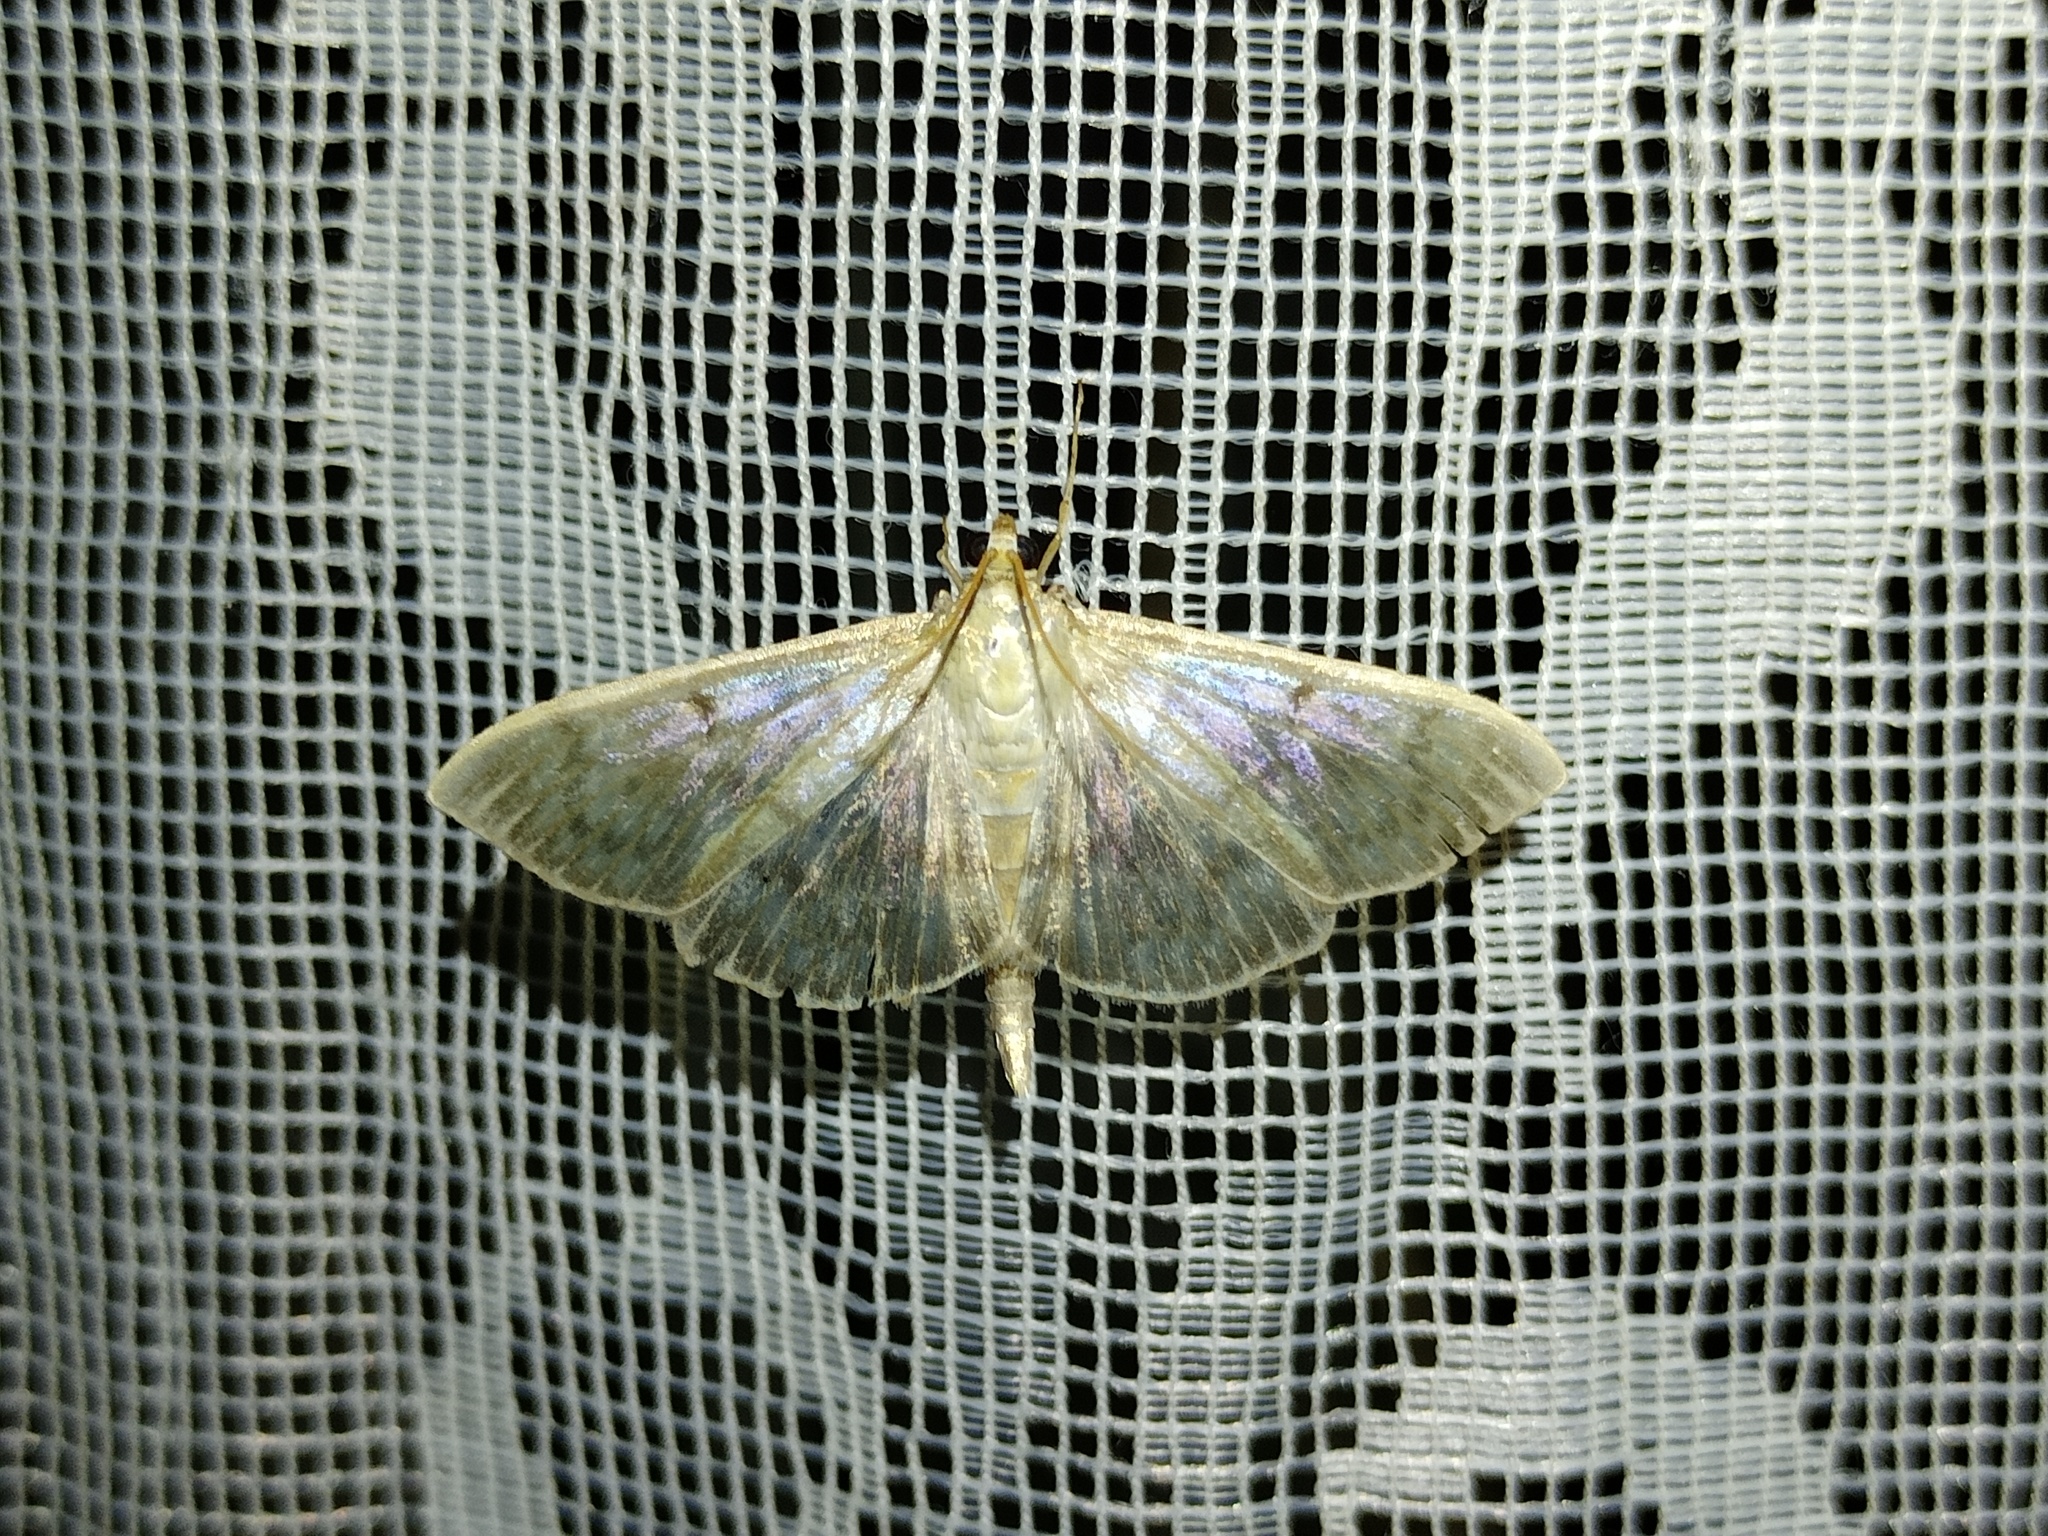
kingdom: Animalia
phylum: Arthropoda
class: Insecta
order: Lepidoptera
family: Crambidae
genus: Patania
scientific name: Patania ruralis
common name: Mother of pearl
